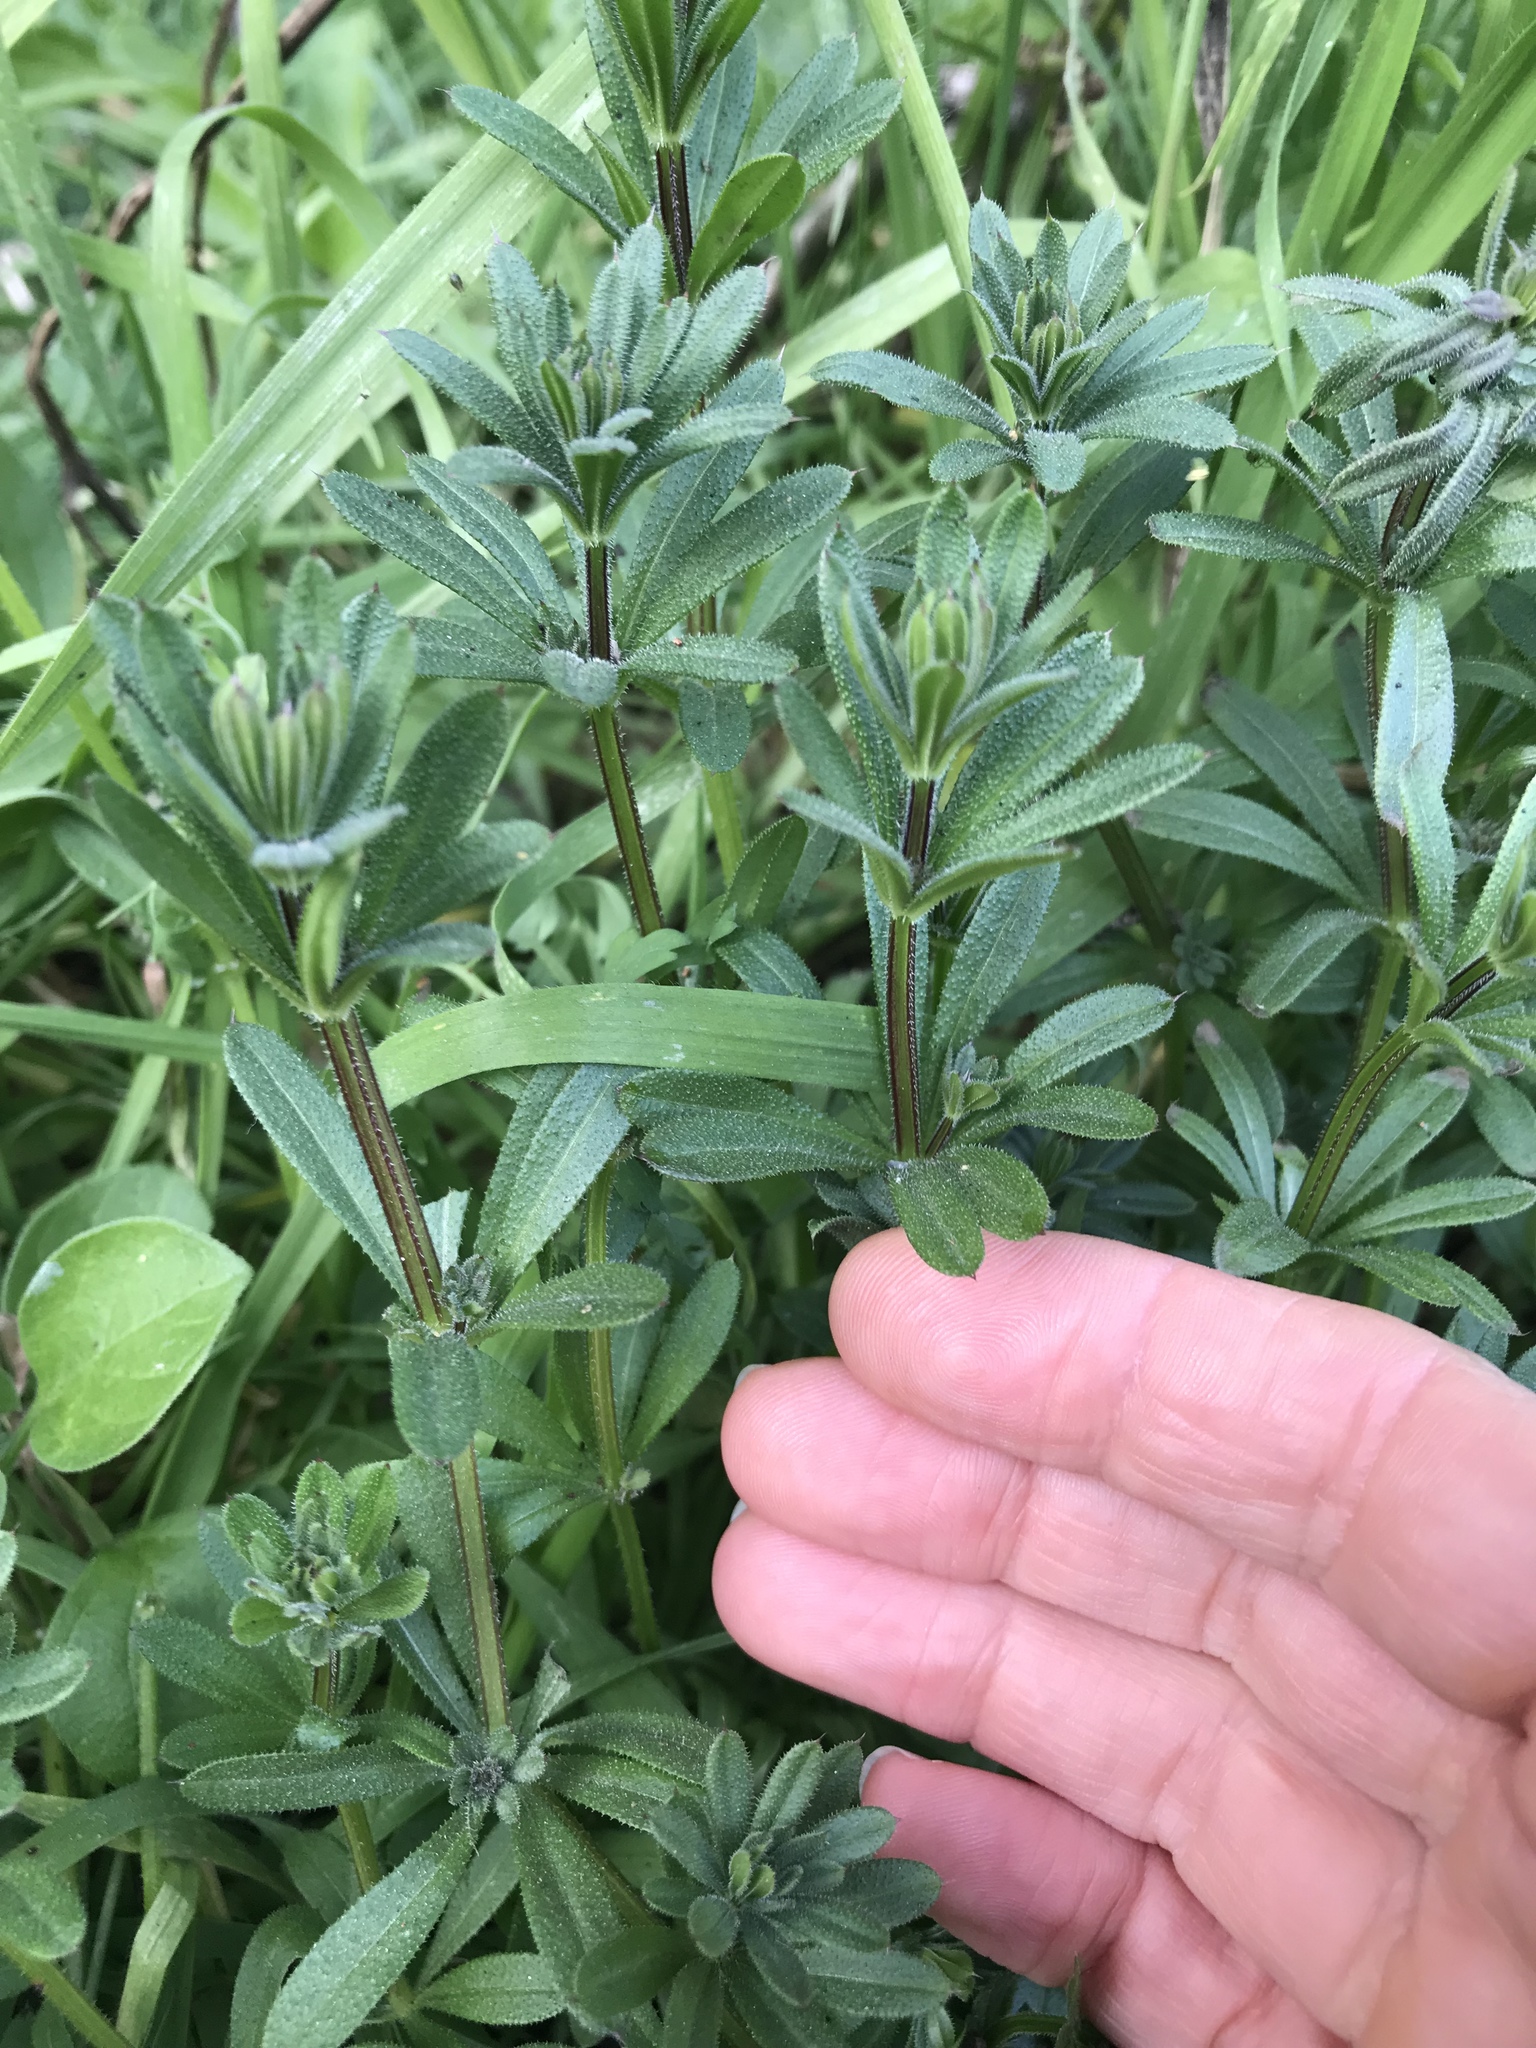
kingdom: Plantae
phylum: Tracheophyta
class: Magnoliopsida
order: Gentianales
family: Rubiaceae
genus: Galium
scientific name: Galium aparine
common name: Cleavers
